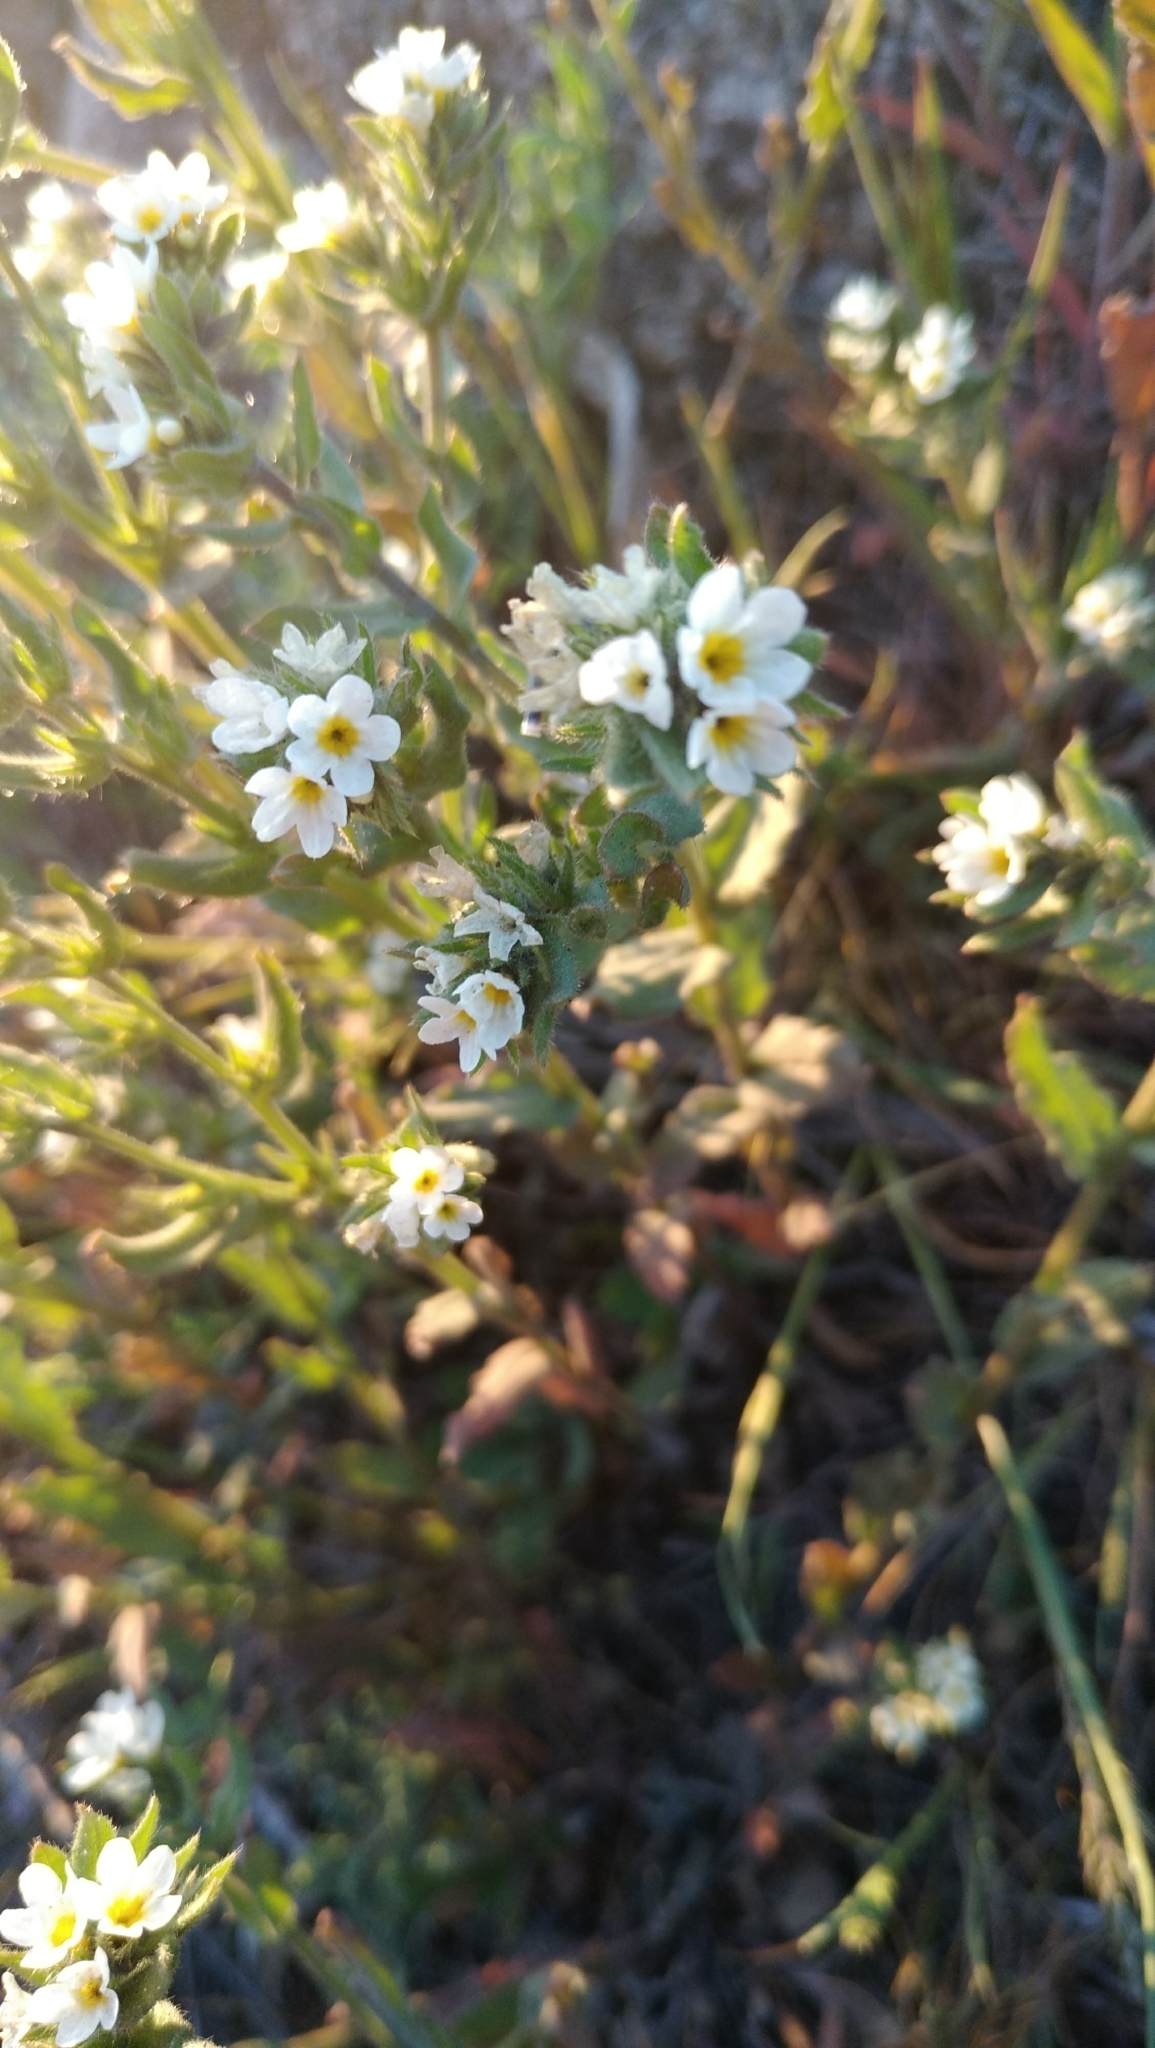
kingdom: Plantae
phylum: Tracheophyta
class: Magnoliopsida
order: Boraginales
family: Boraginaceae
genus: Buglossoides
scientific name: Buglossoides czernjajevii
